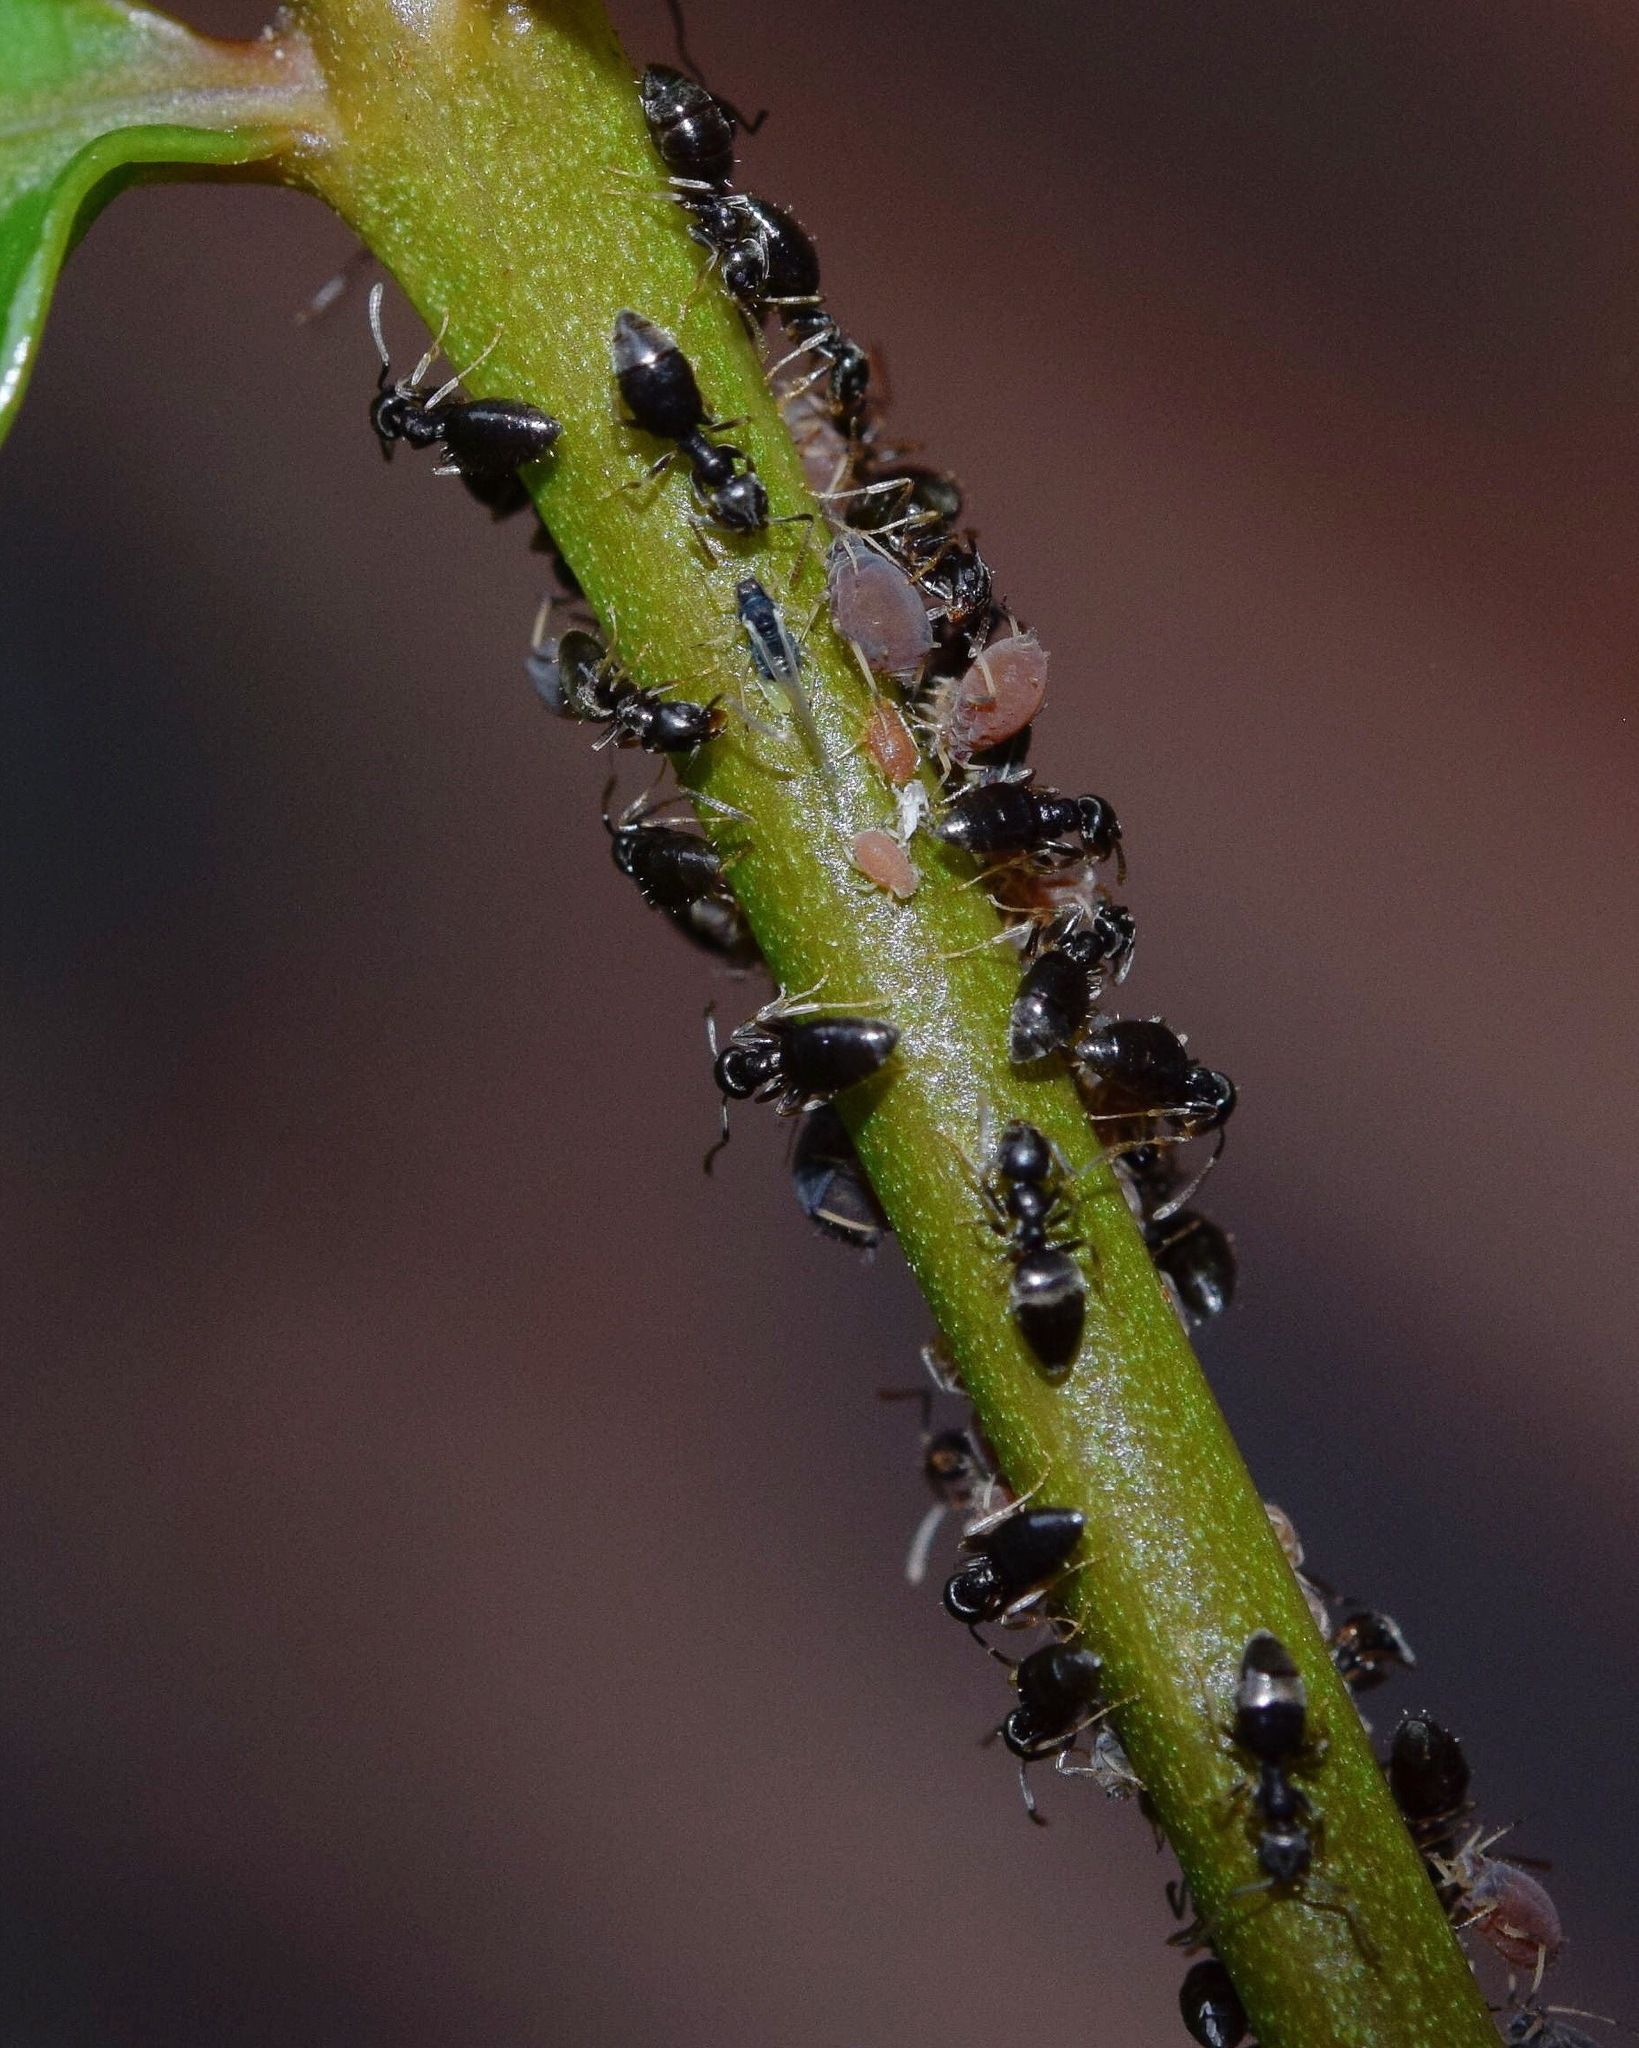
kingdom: Animalia
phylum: Arthropoda
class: Insecta
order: Hymenoptera
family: Formicidae
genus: Tapinoma
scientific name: Tapinoma pallipes
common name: Ant
